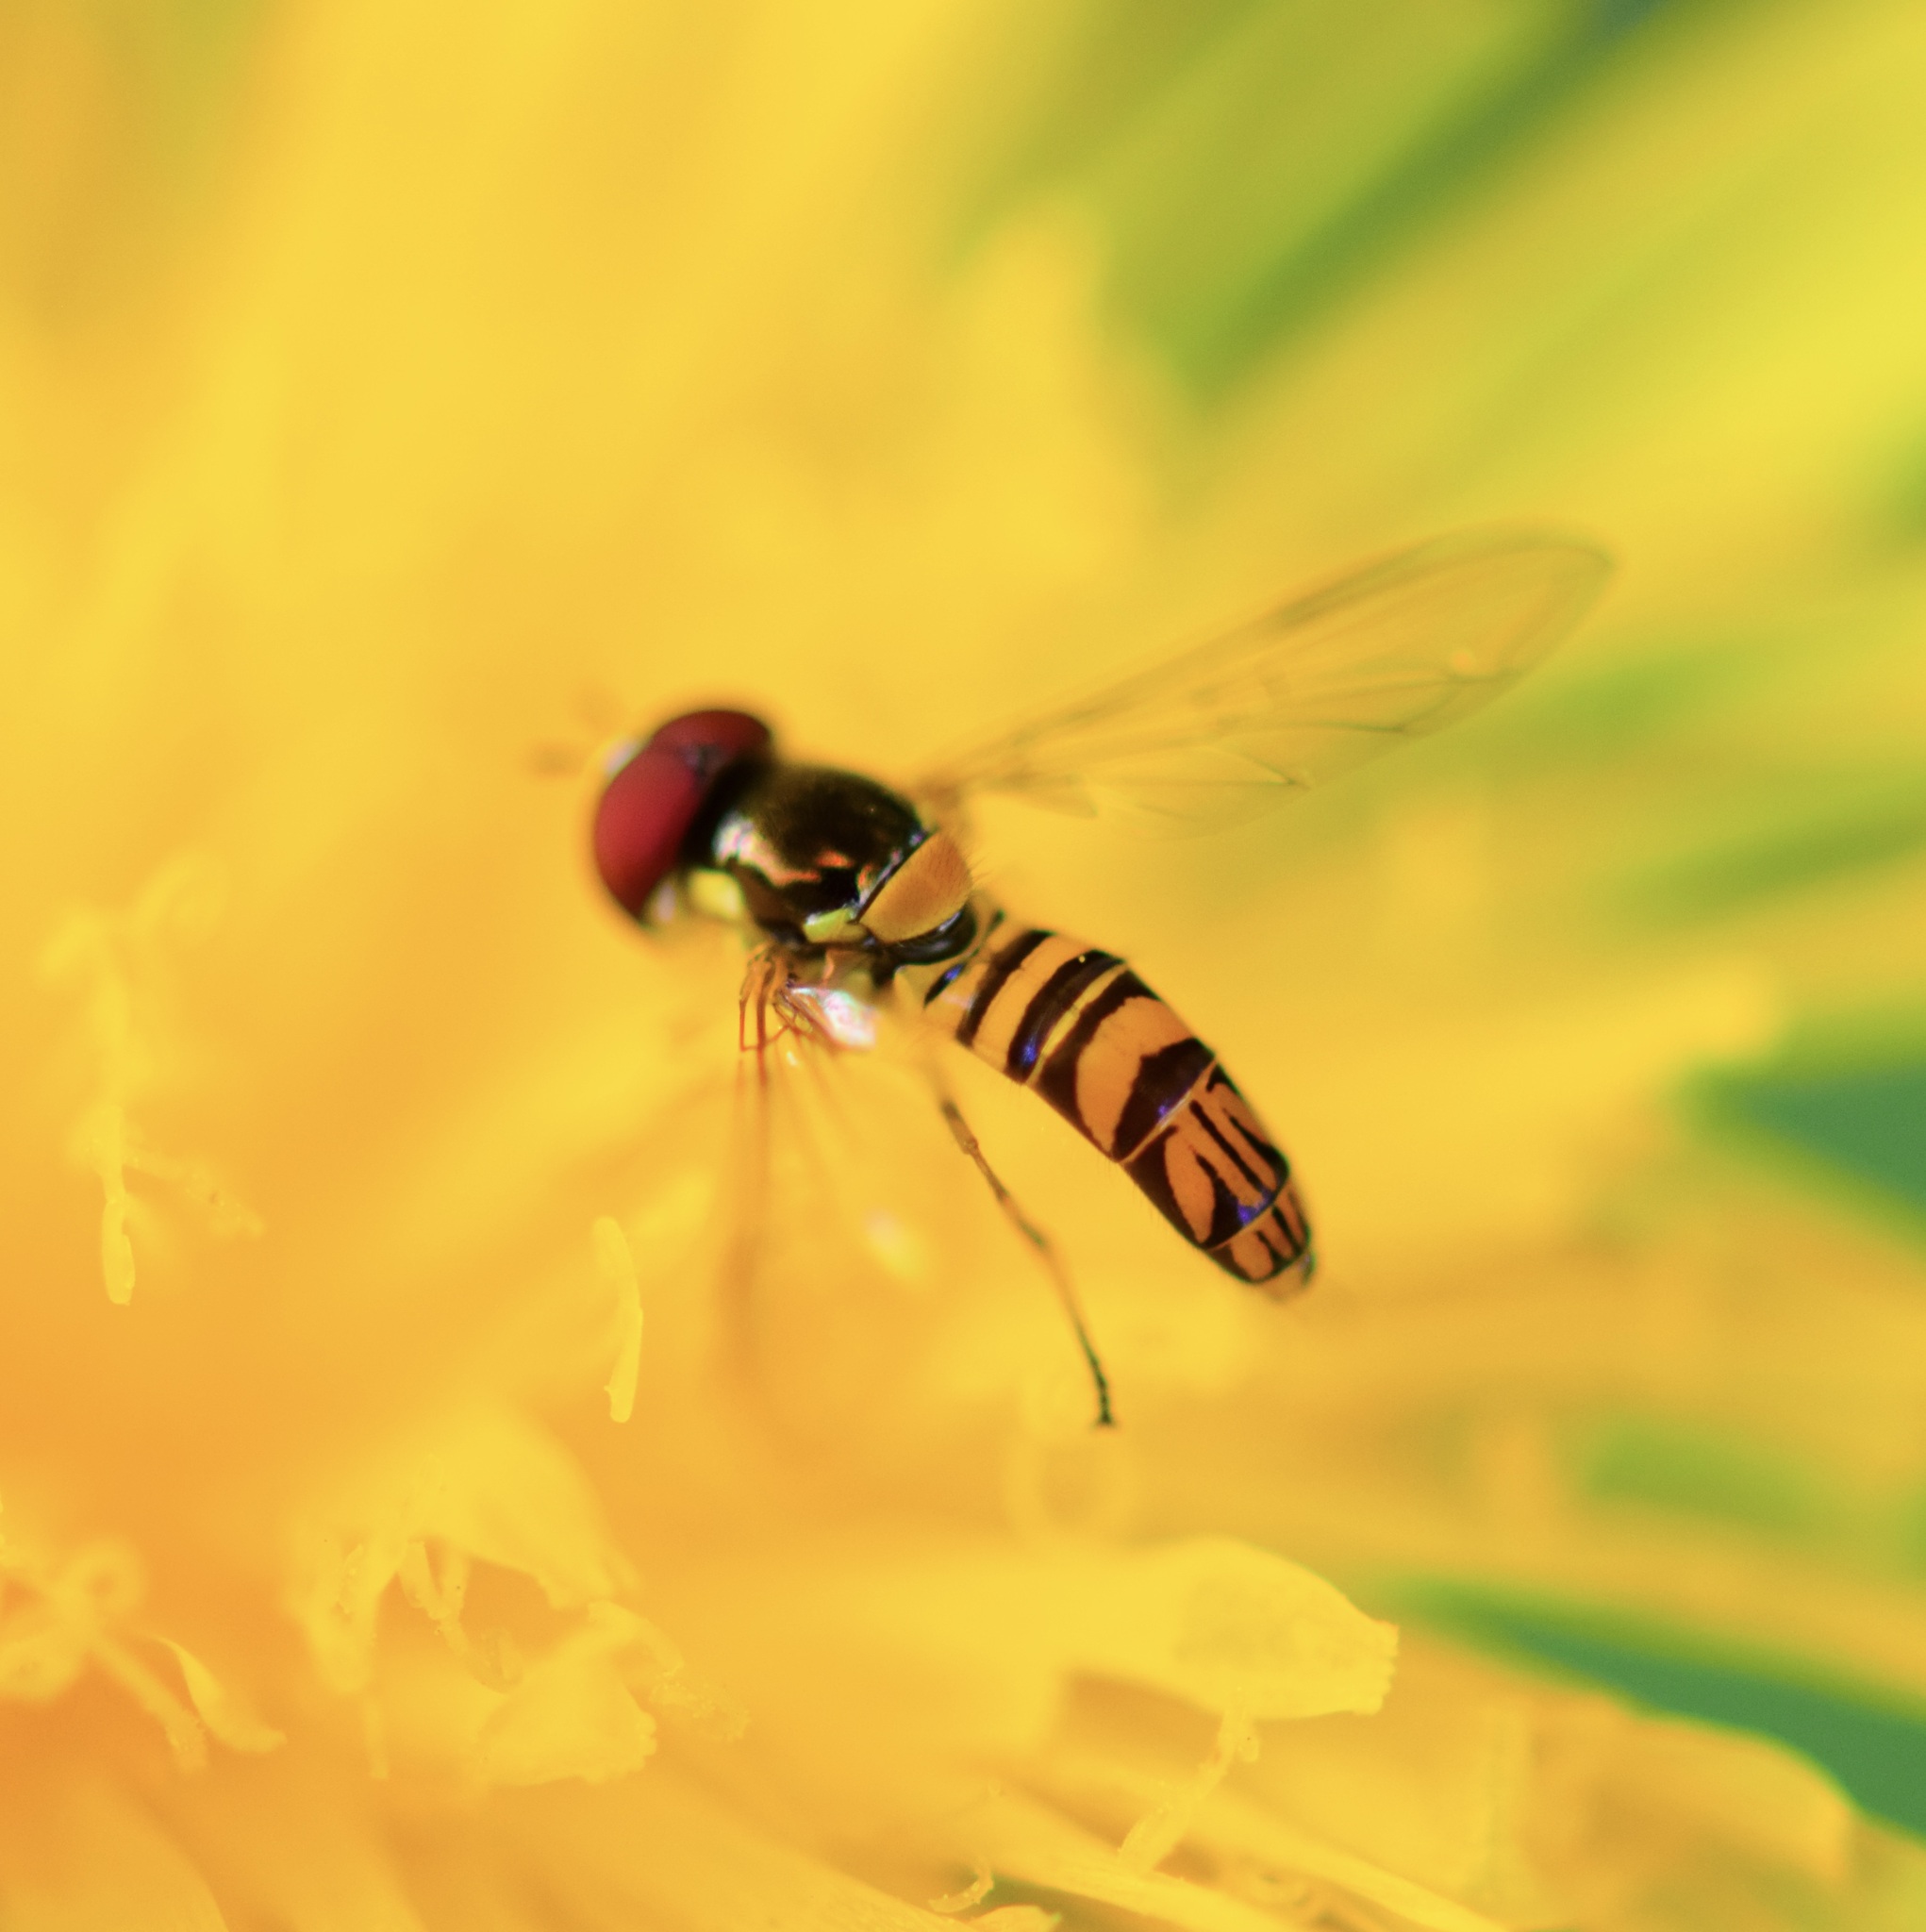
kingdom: Animalia
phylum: Arthropoda
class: Insecta
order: Diptera
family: Syrphidae
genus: Allograpta
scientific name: Allograpta obliqua
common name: Common oblique syrphid
